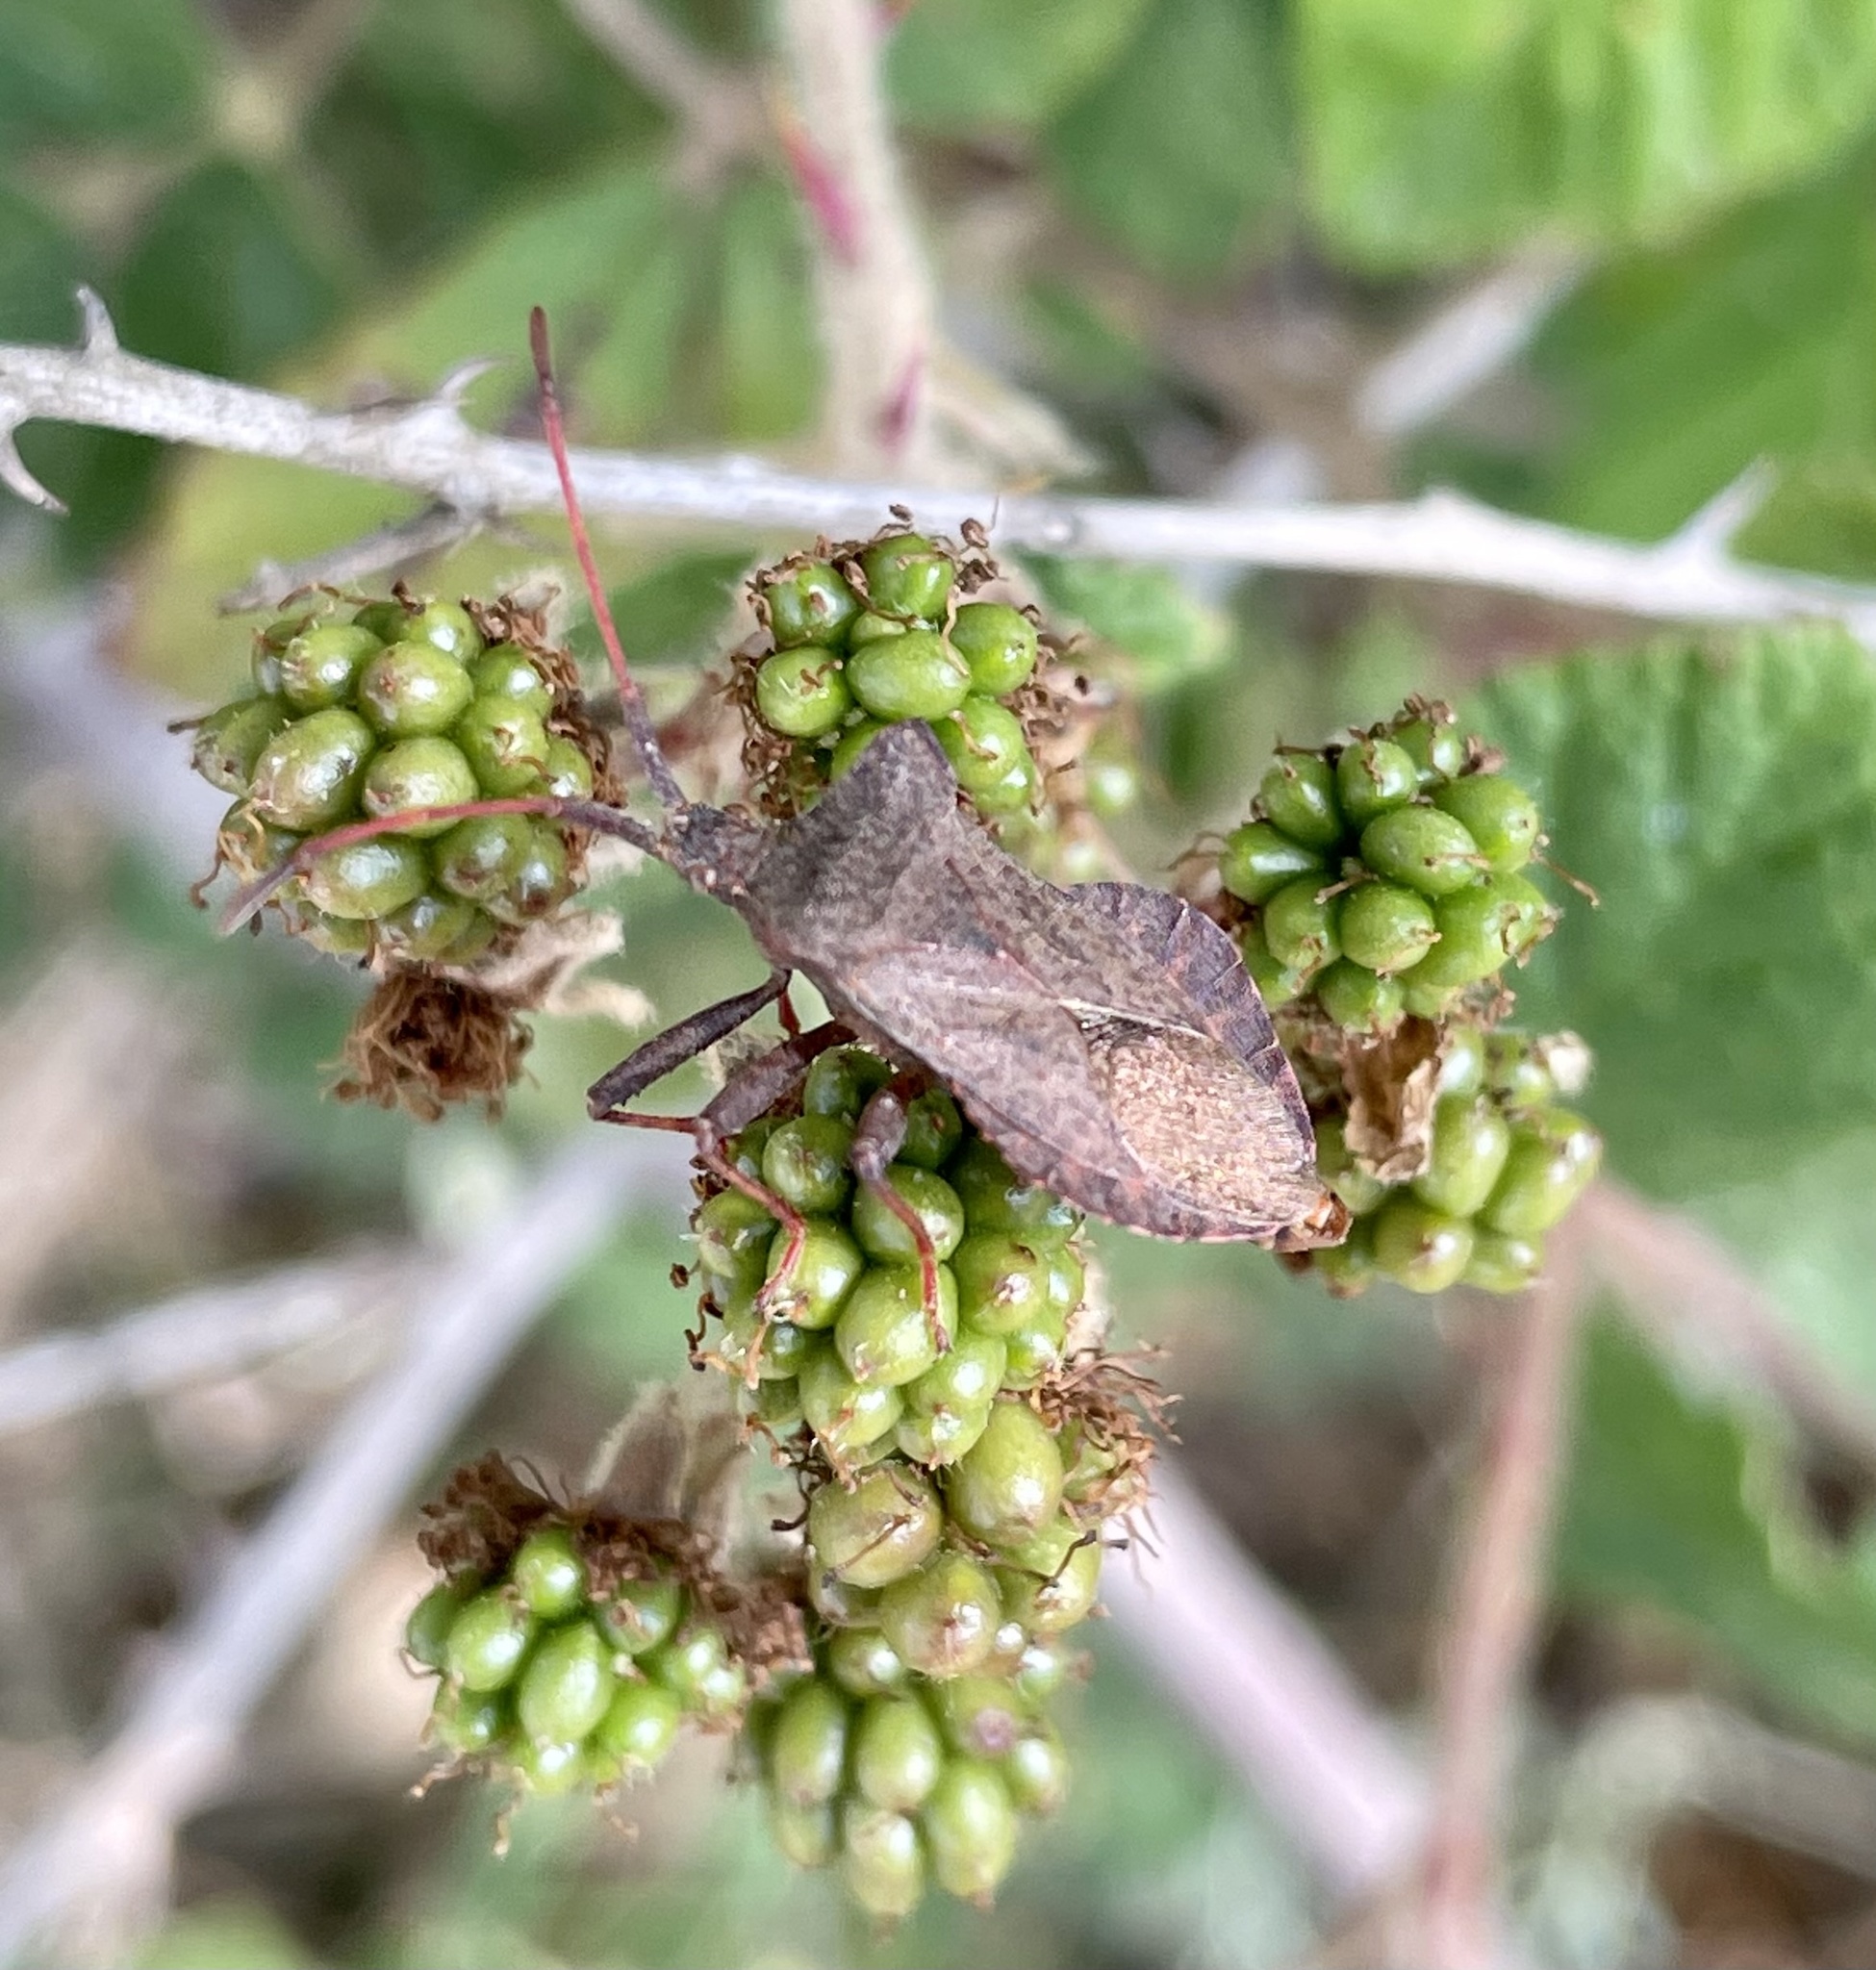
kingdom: Animalia
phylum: Arthropoda
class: Insecta
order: Hemiptera
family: Coreidae
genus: Coreus
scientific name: Coreus marginatus
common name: Dock bug
